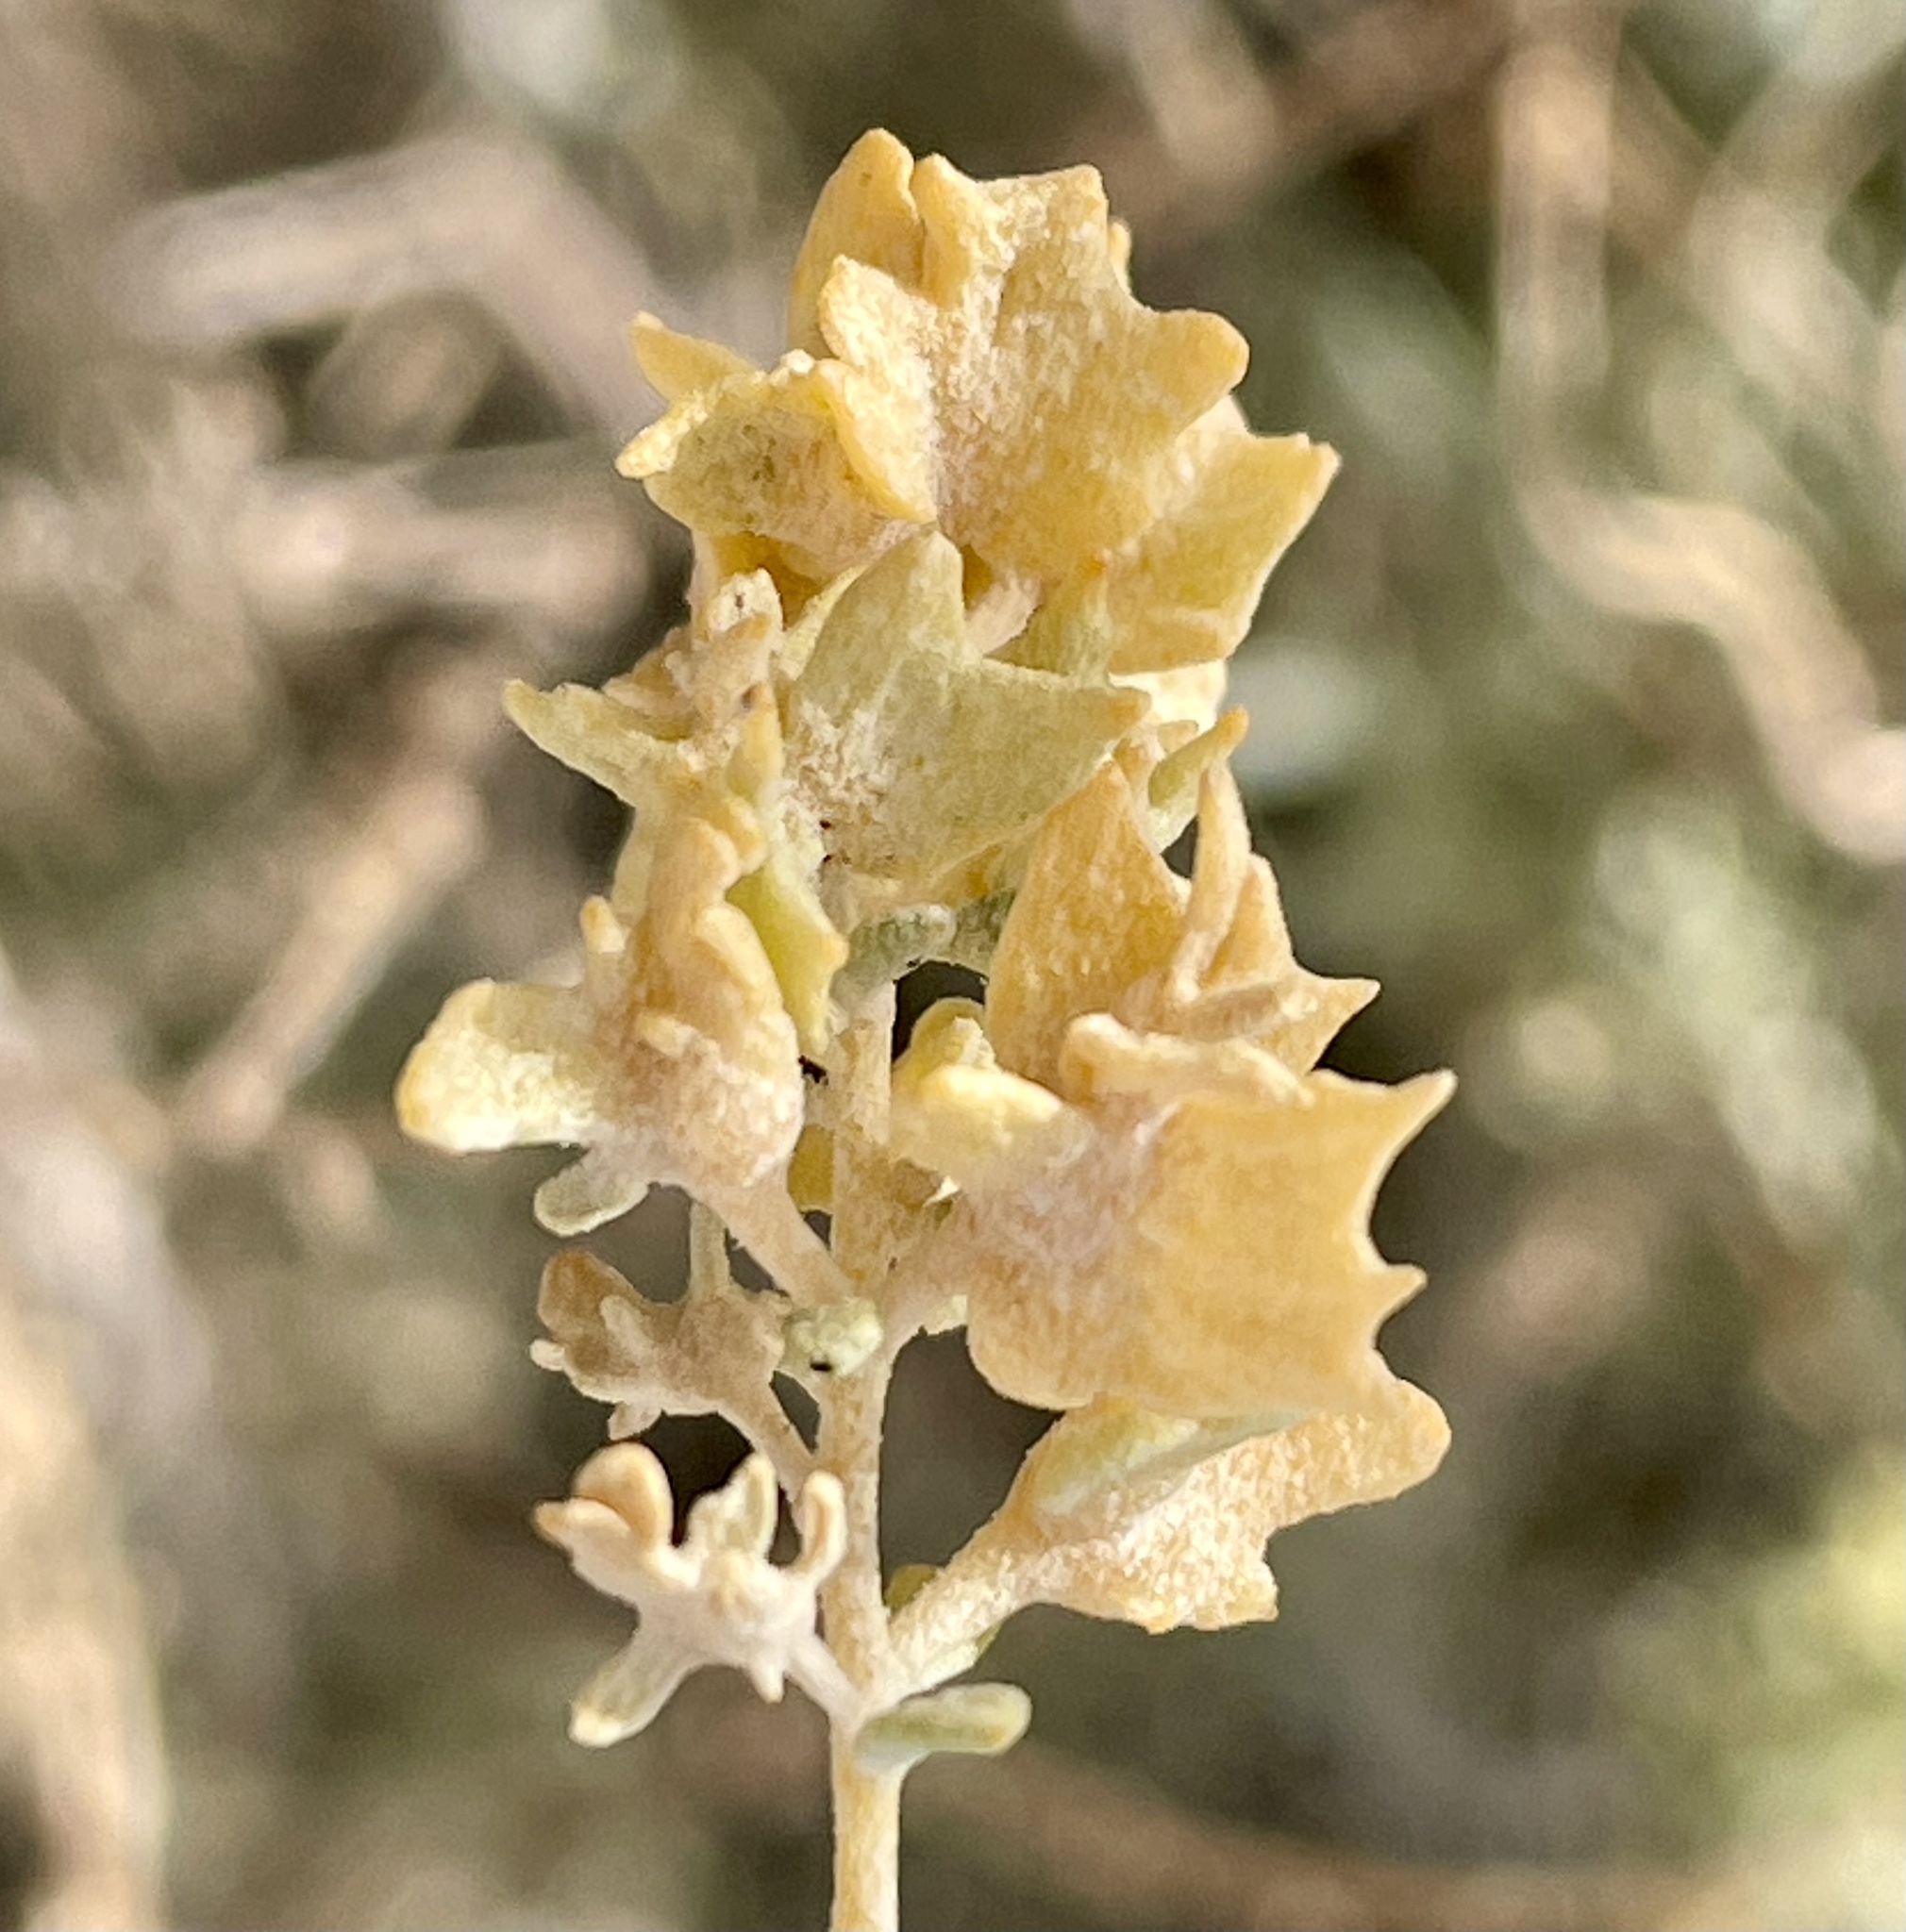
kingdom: Plantae
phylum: Tracheophyta
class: Magnoliopsida
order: Caryophyllales
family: Amaranthaceae
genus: Atriplex
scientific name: Atriplex canescens
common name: Four-wing saltbush
